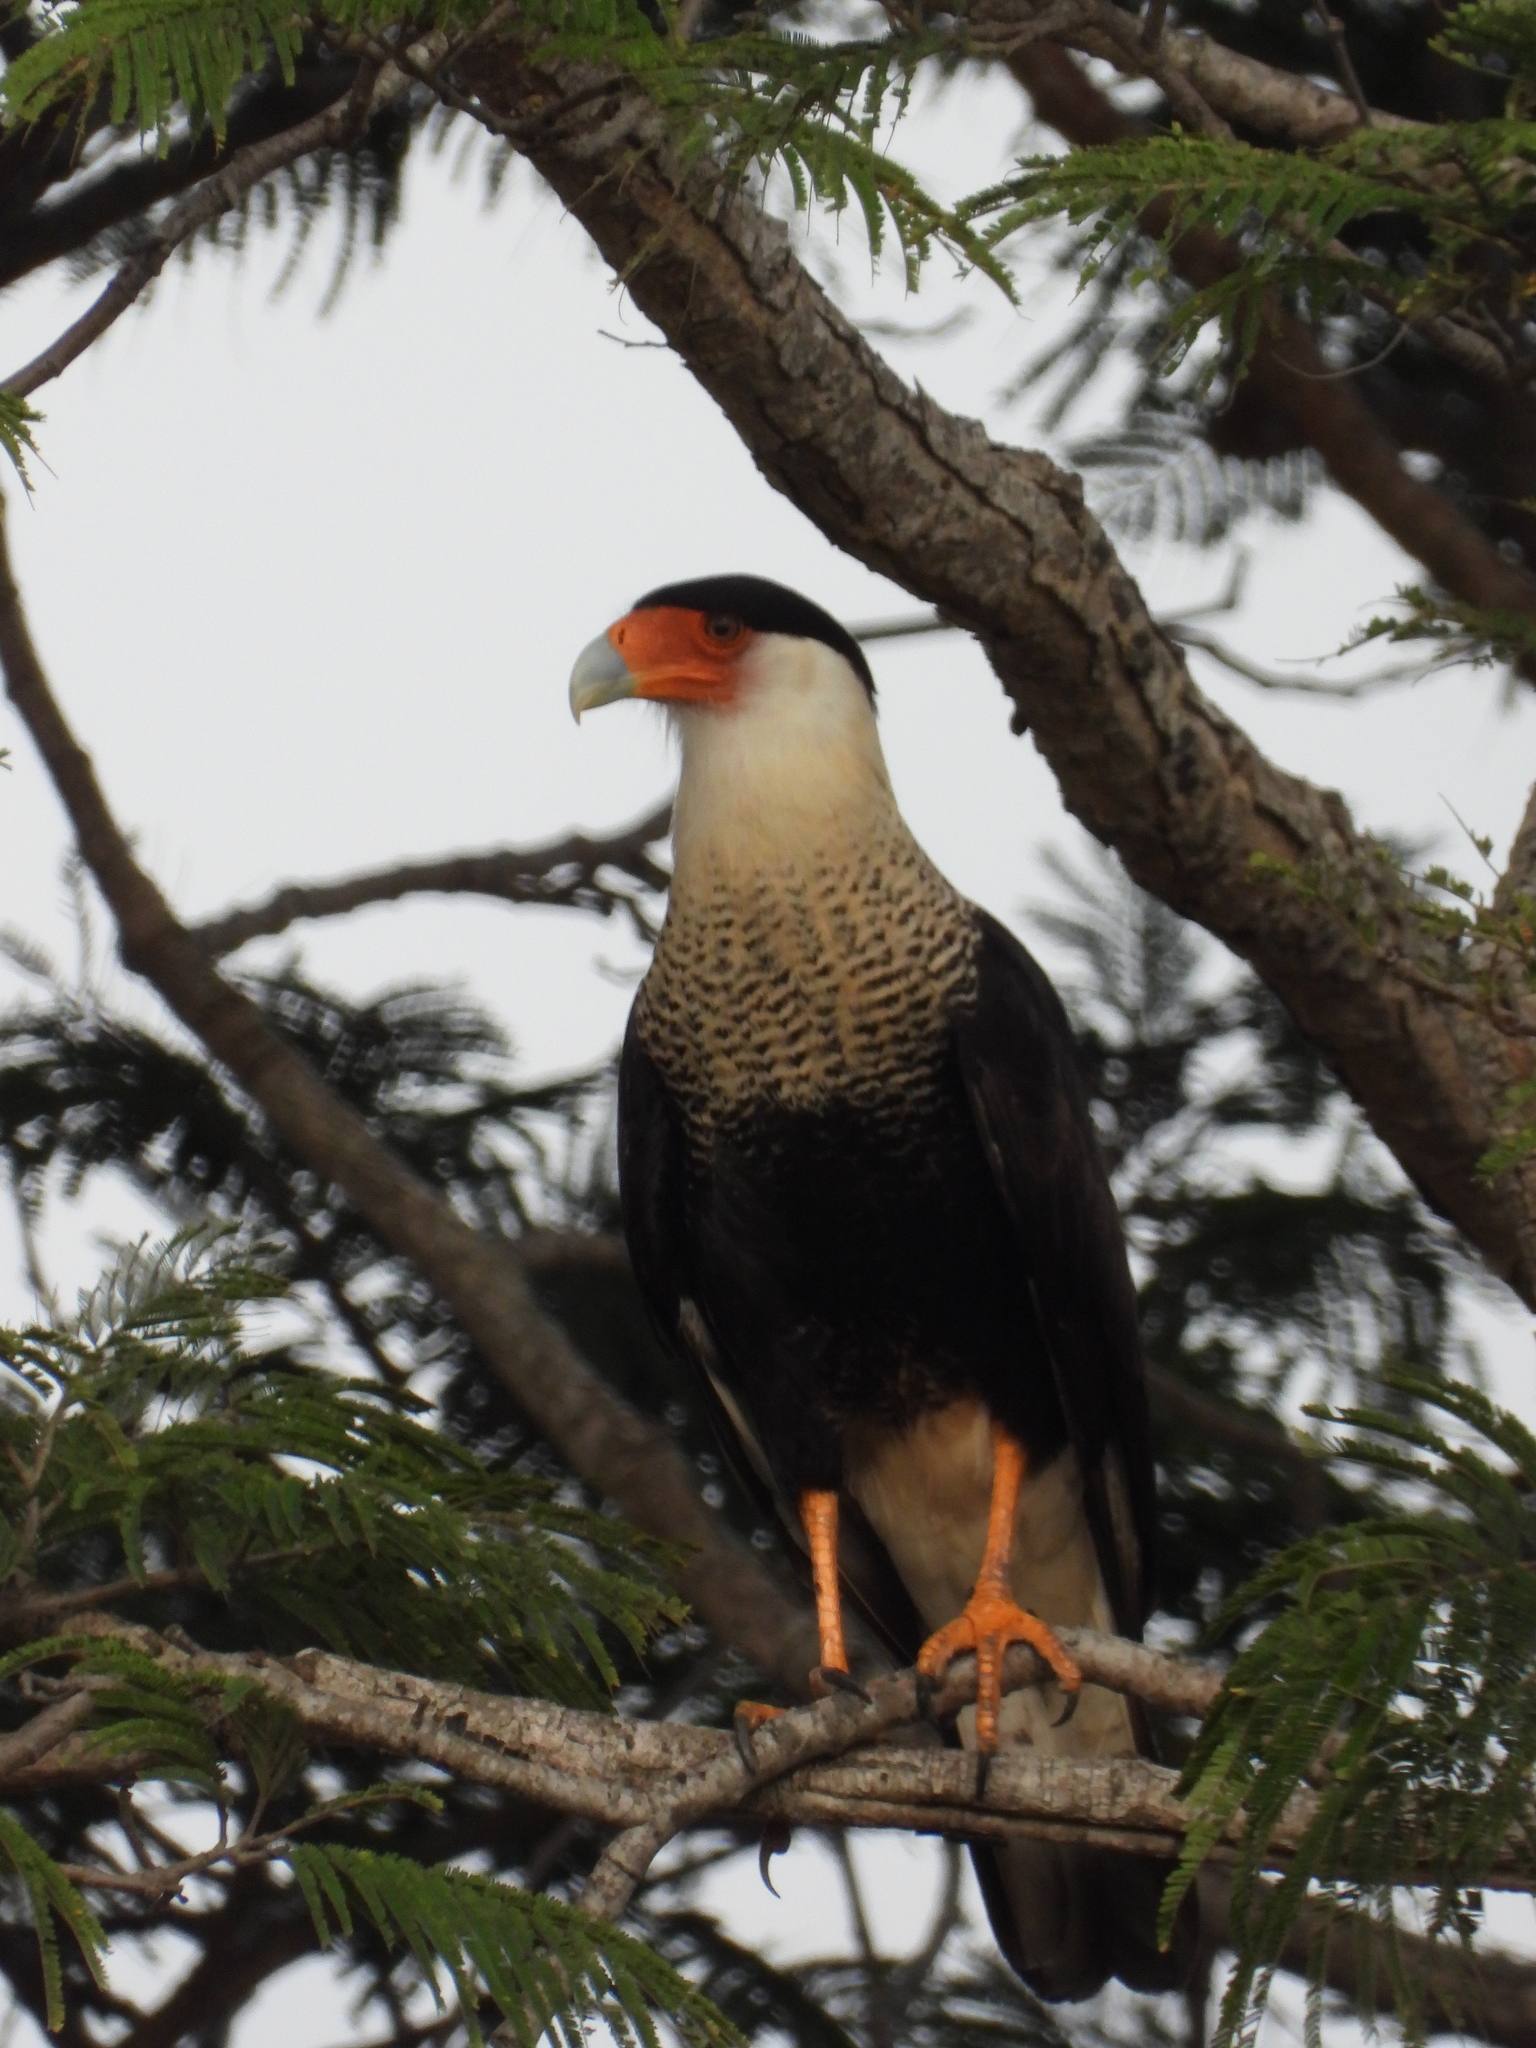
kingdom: Animalia
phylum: Chordata
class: Aves
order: Falconiformes
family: Falconidae
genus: Caracara
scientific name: Caracara plancus
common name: Southern caracara
